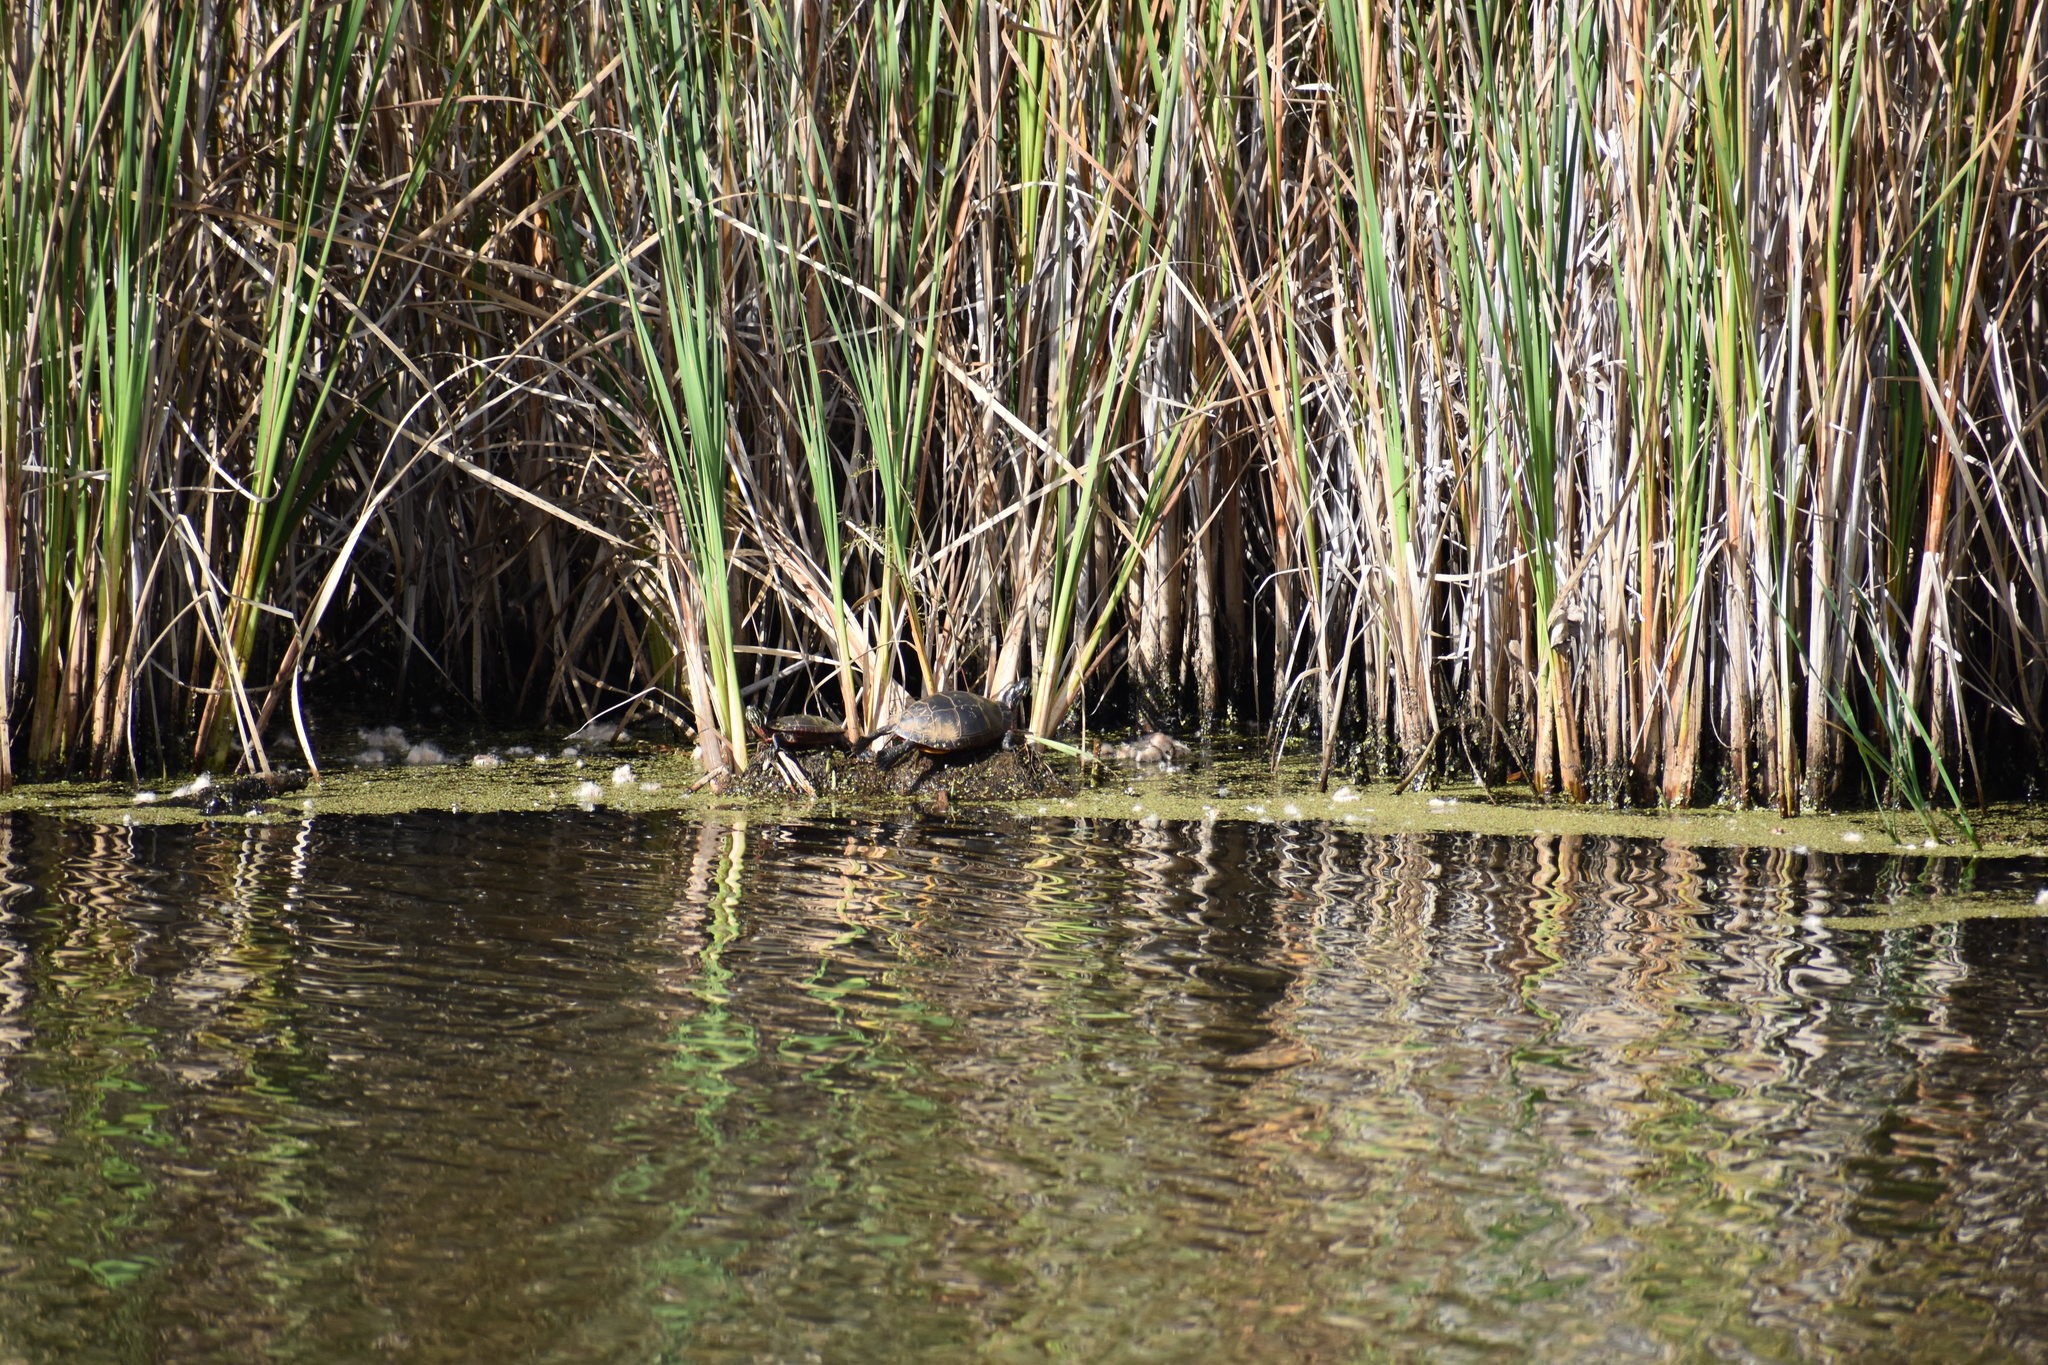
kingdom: Animalia
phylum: Chordata
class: Testudines
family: Emydidae
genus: Chrysemys
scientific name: Chrysemys picta
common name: Painted turtle
